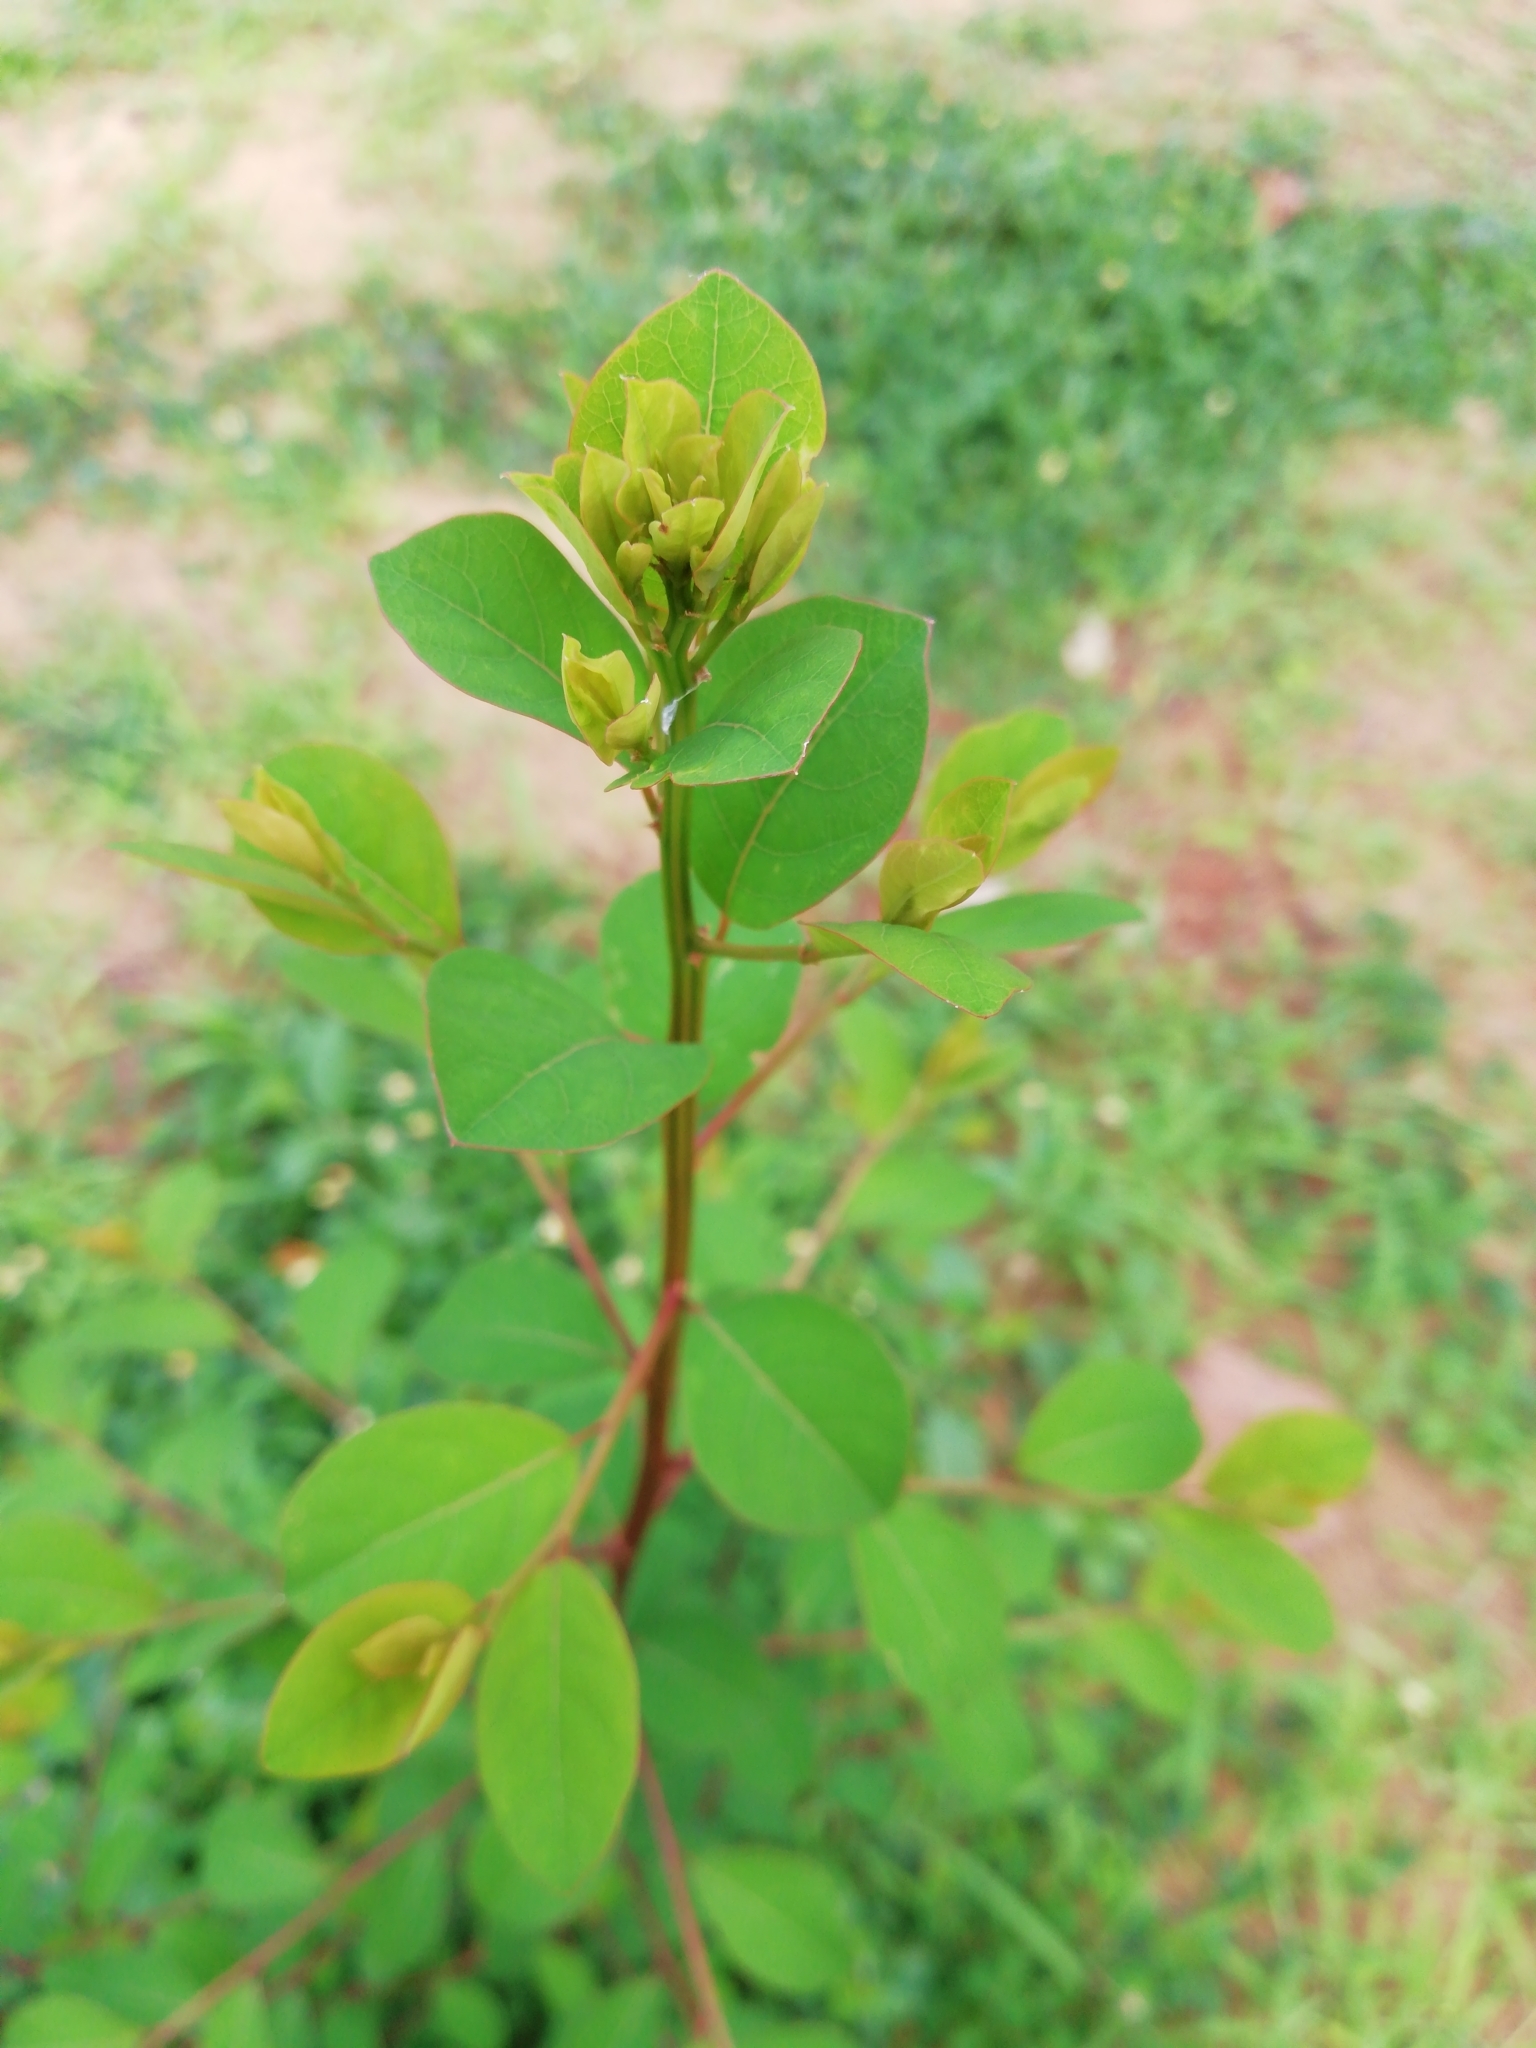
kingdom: Plantae
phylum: Tracheophyta
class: Magnoliopsida
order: Malpighiales
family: Phyllanthaceae
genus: Flueggea
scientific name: Flueggea leucopyrus
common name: Bushweed
